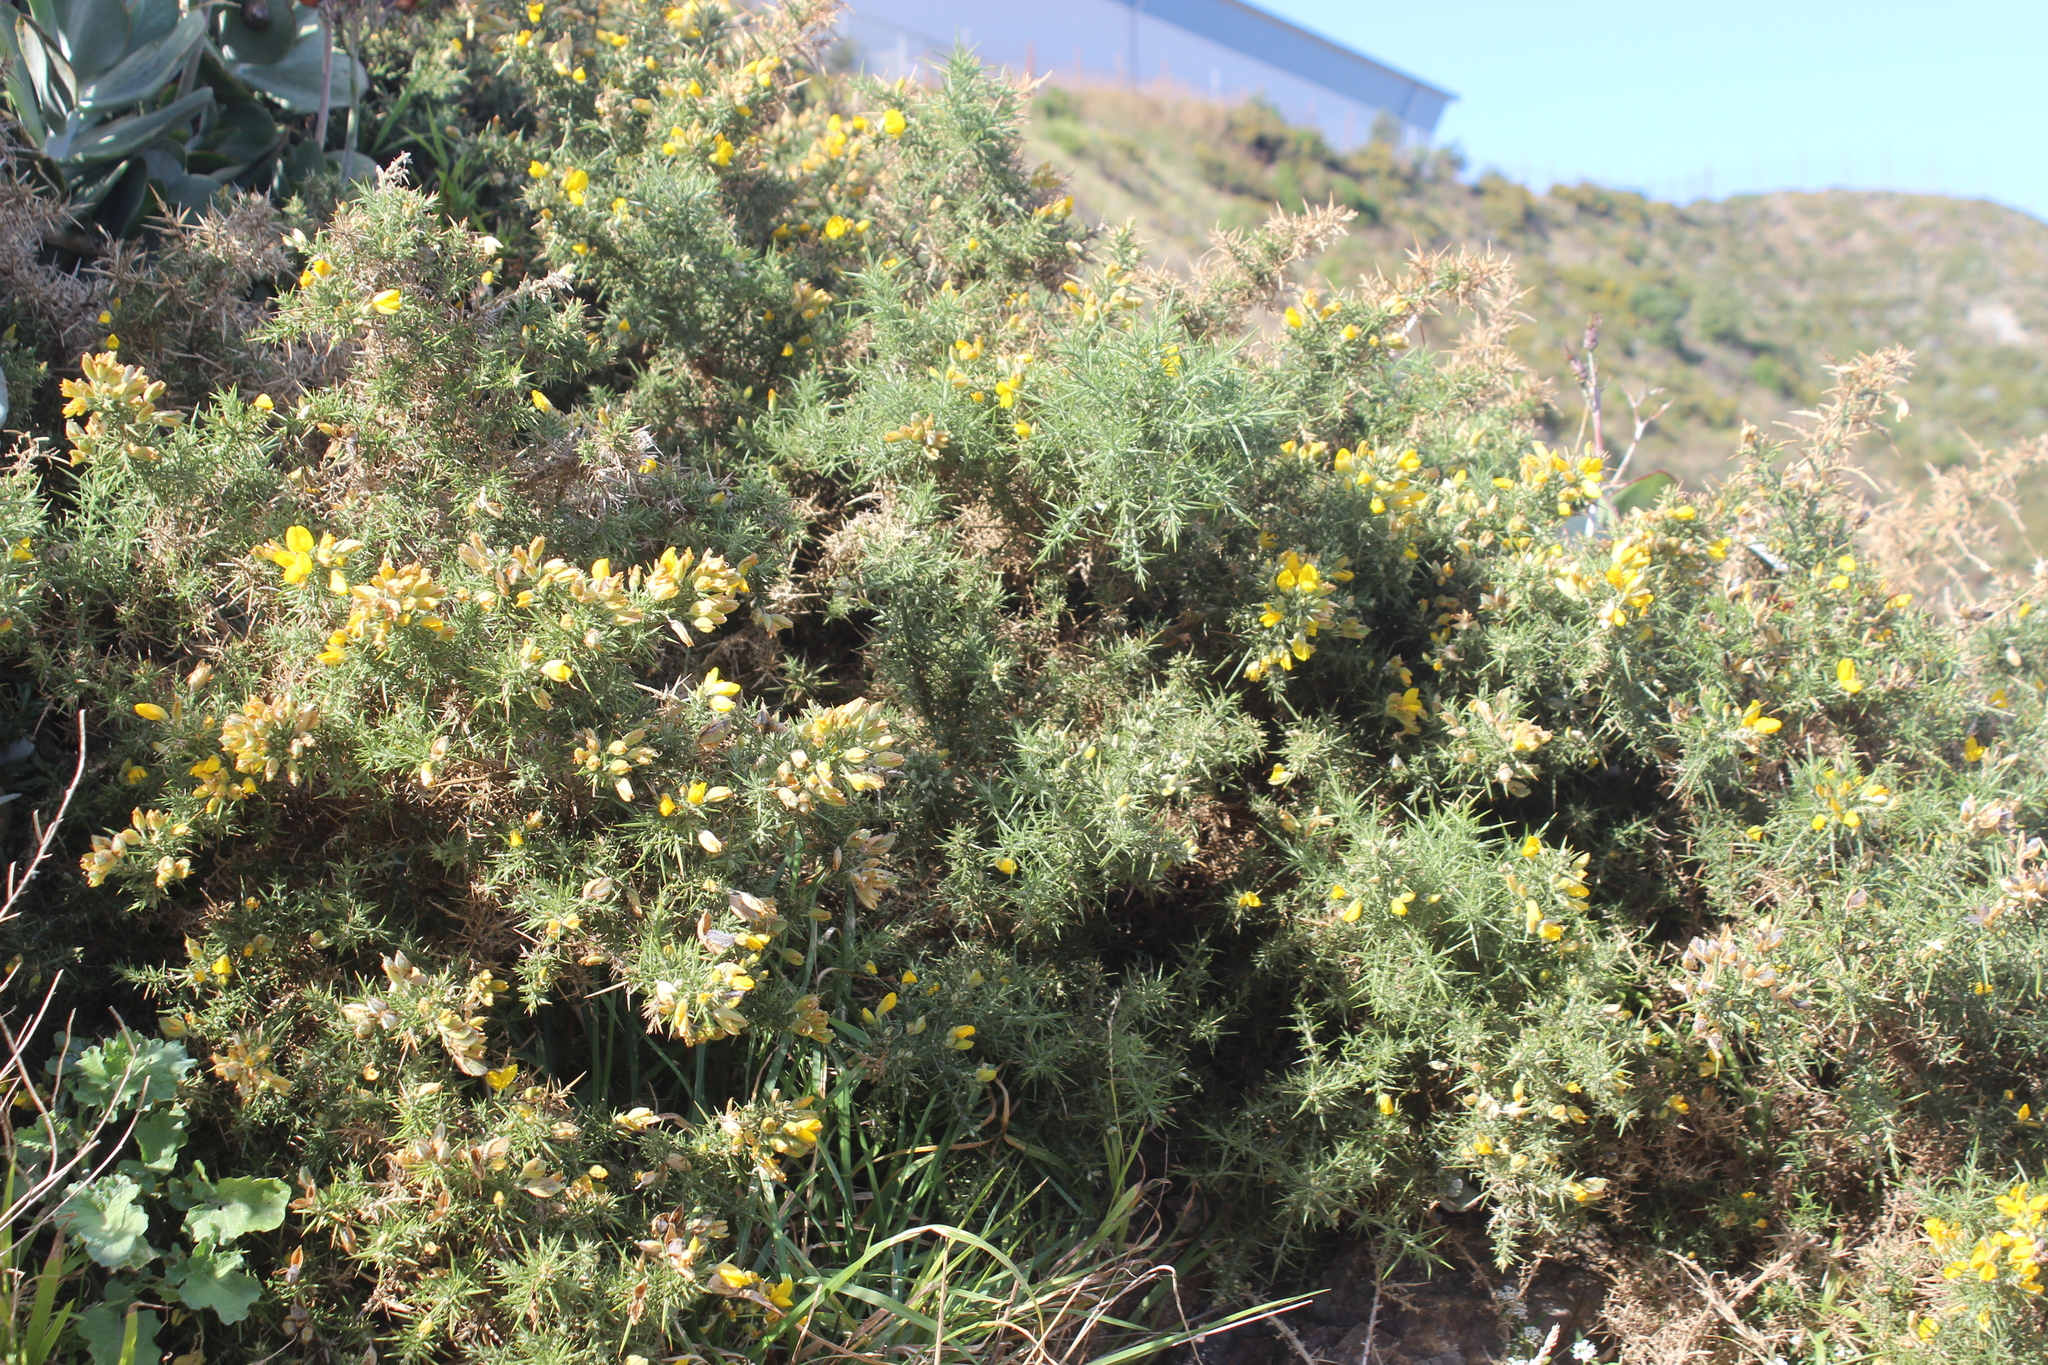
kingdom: Plantae
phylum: Tracheophyta
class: Magnoliopsida
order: Fabales
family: Fabaceae
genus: Ulex
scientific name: Ulex europaeus
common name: Common gorse
